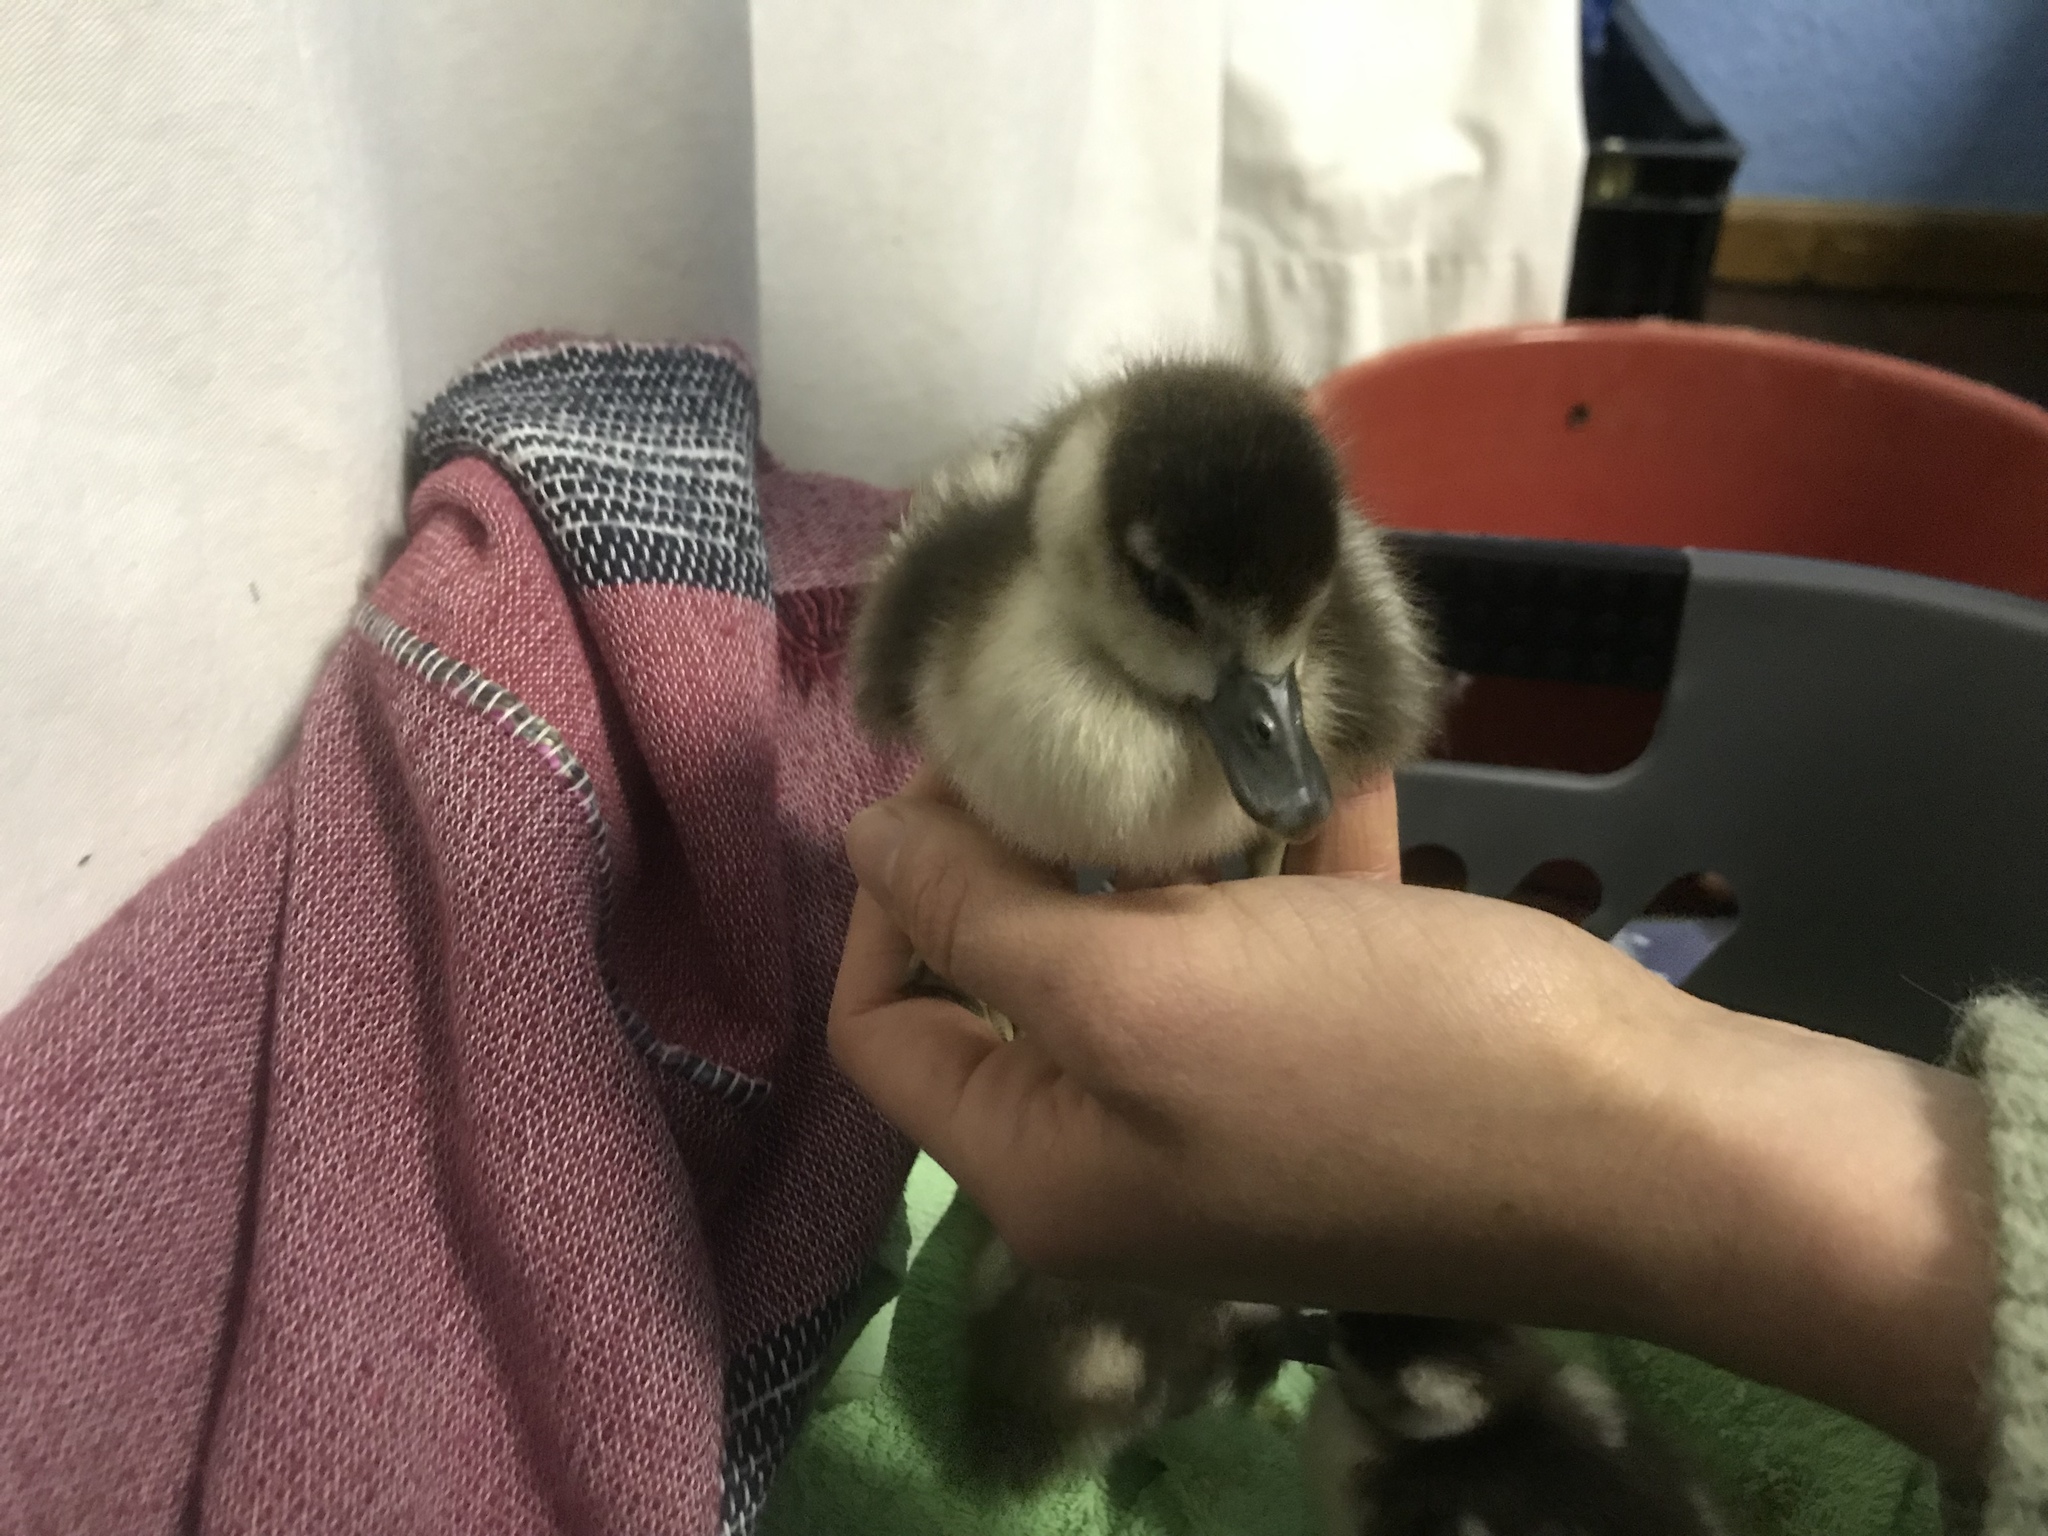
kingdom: Animalia
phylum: Chordata
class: Aves
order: Anseriformes
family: Anatidae
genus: Alopochen
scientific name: Alopochen aegyptiaca
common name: Egyptian goose
